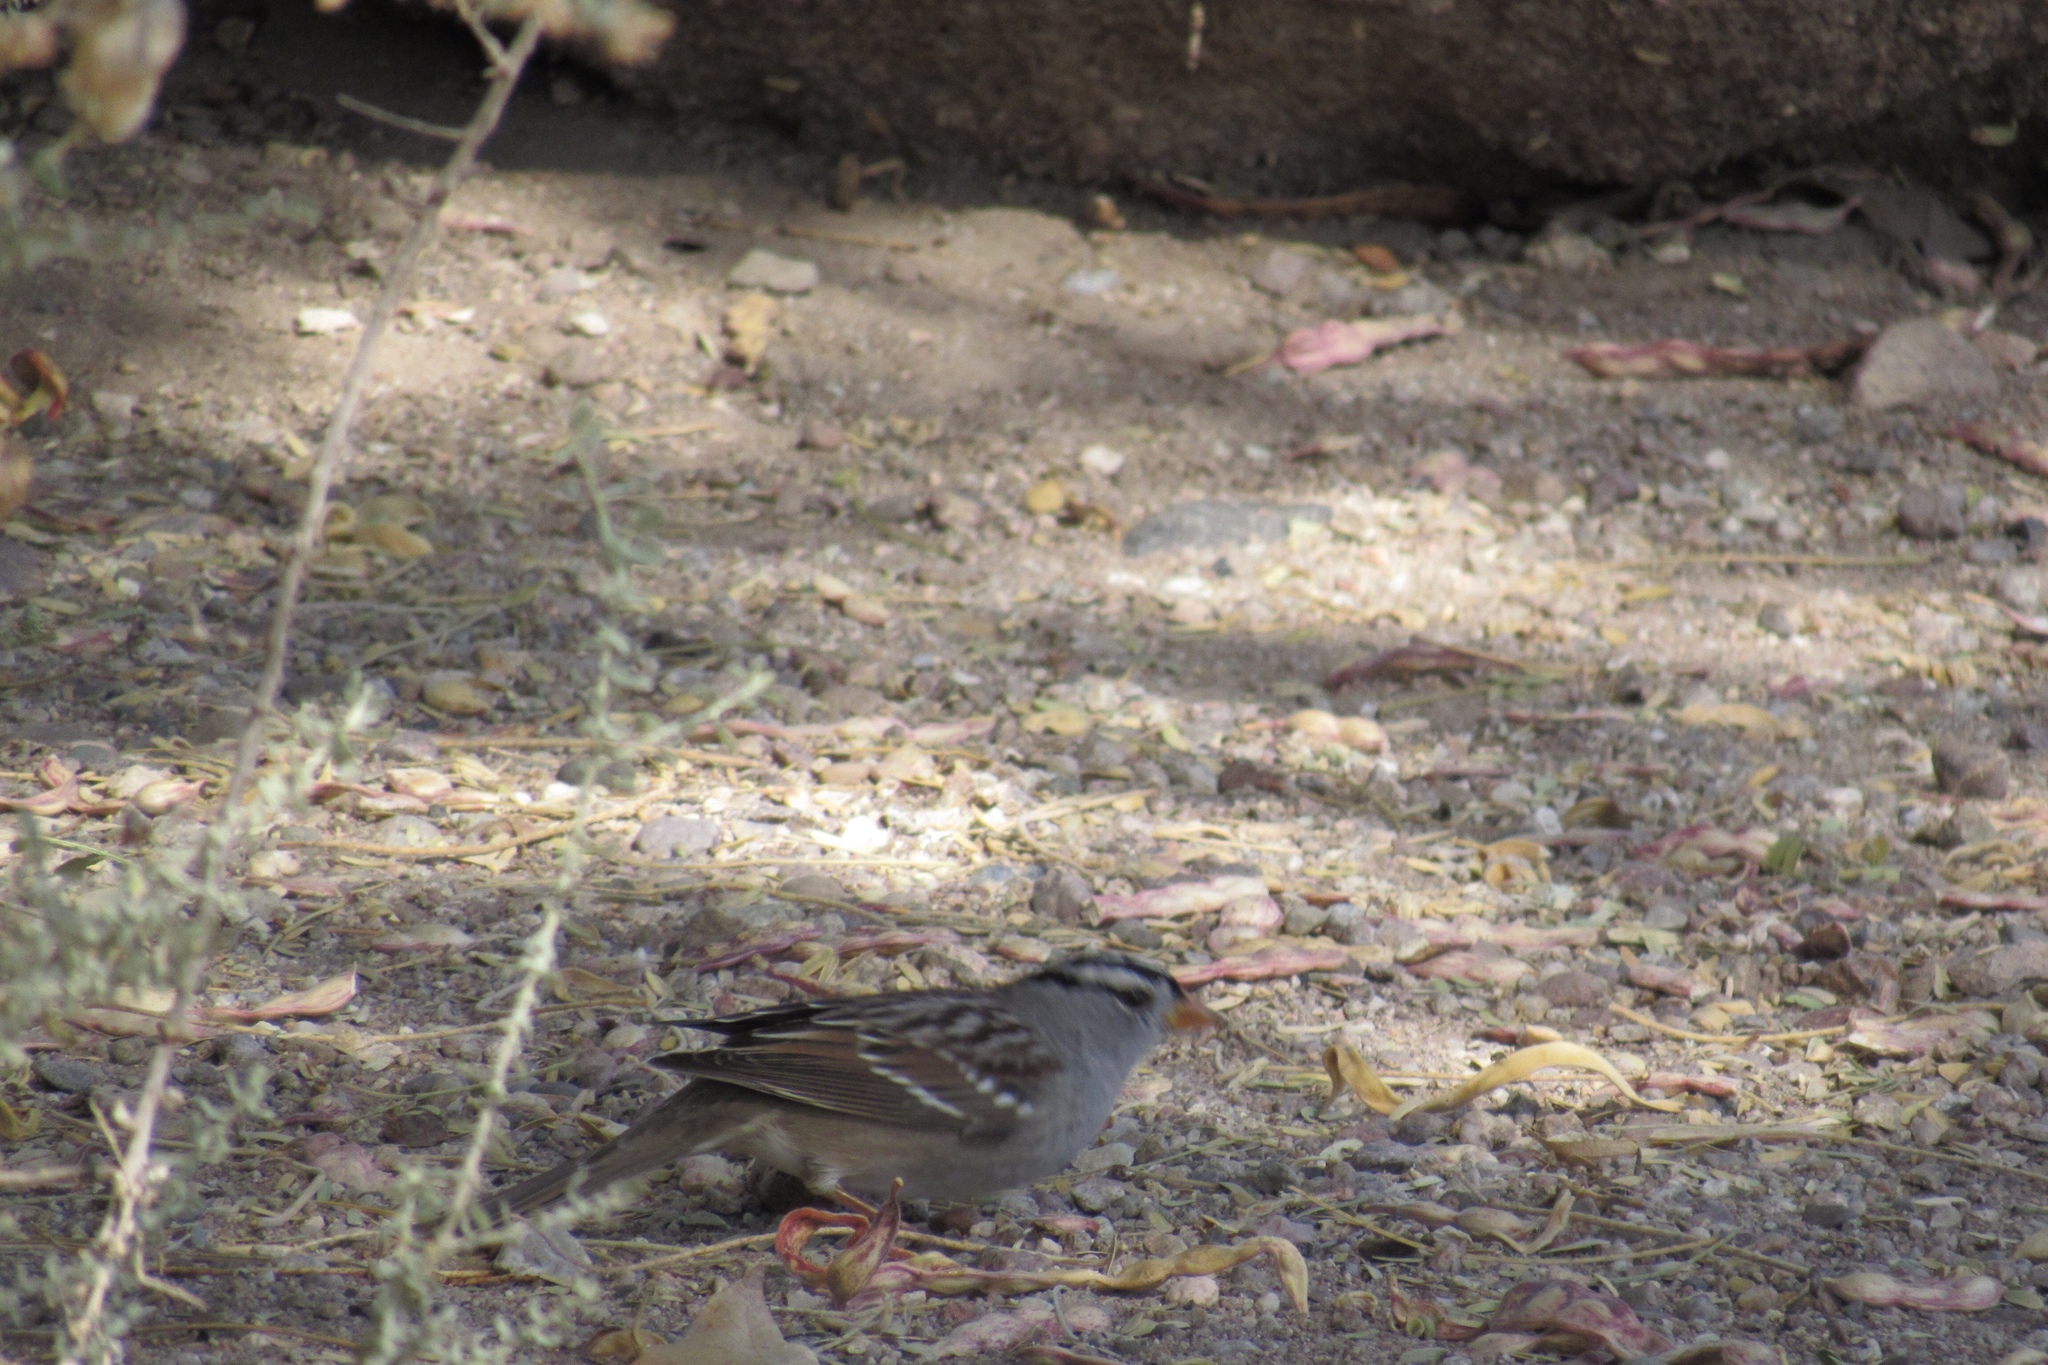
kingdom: Animalia
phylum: Chordata
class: Aves
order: Passeriformes
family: Passerellidae
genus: Zonotrichia
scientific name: Zonotrichia leucophrys
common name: White-crowned sparrow
